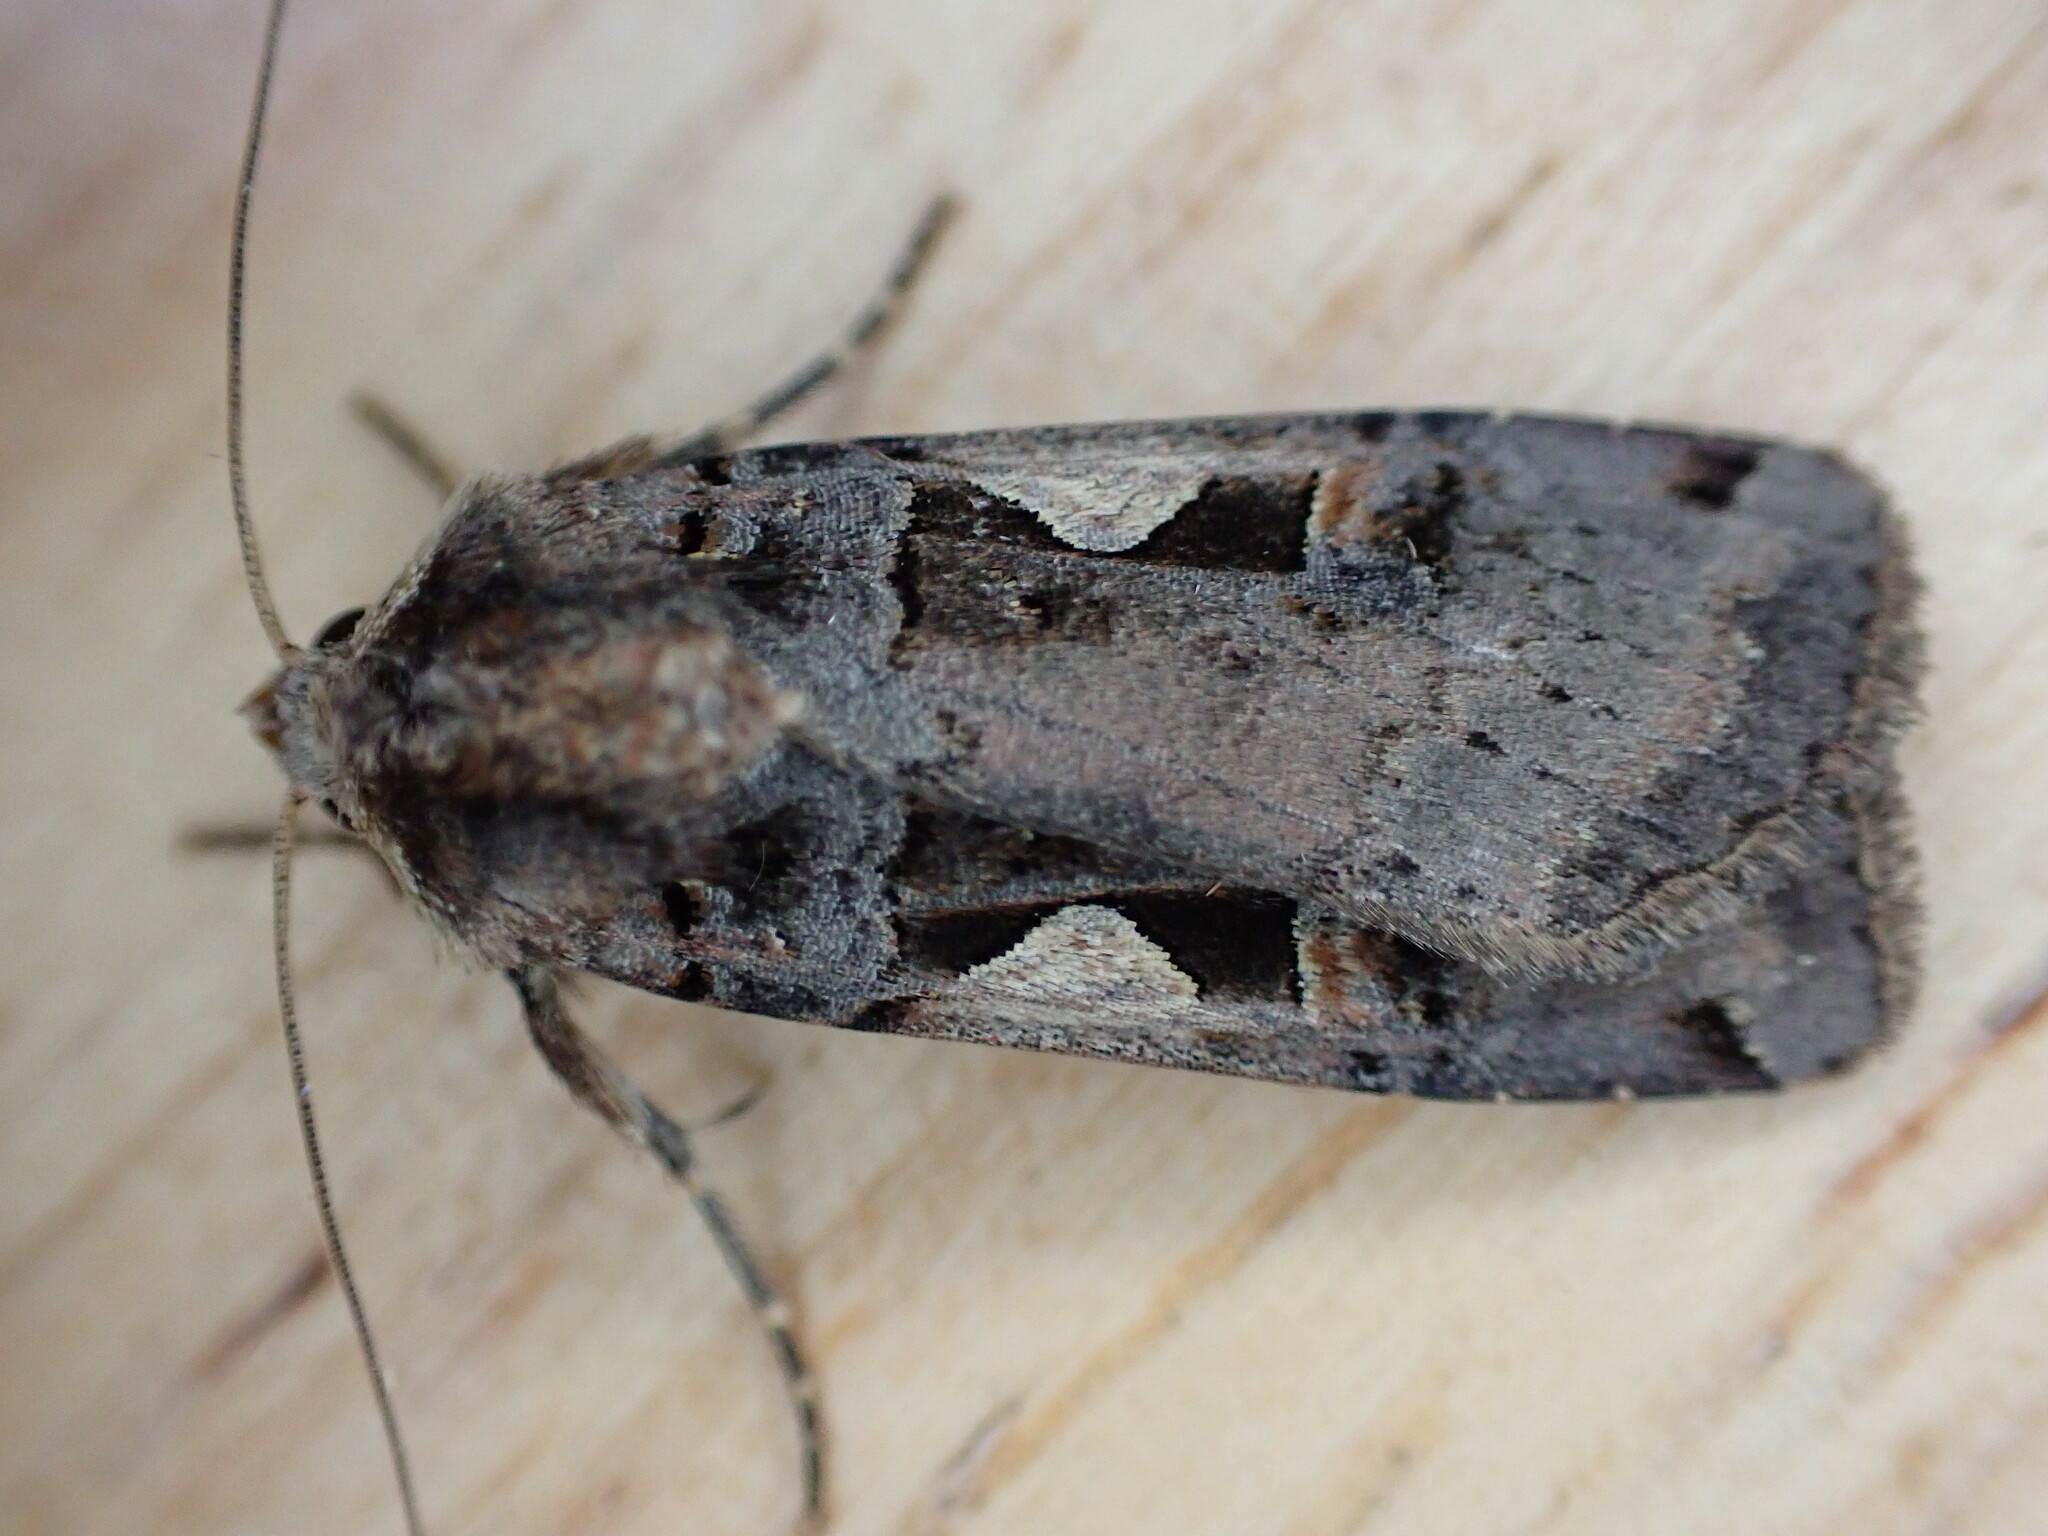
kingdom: Animalia
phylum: Arthropoda
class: Insecta
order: Lepidoptera
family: Noctuidae
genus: Xestia
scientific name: Xestia c-nigrum
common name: Setaceous hebrew character
